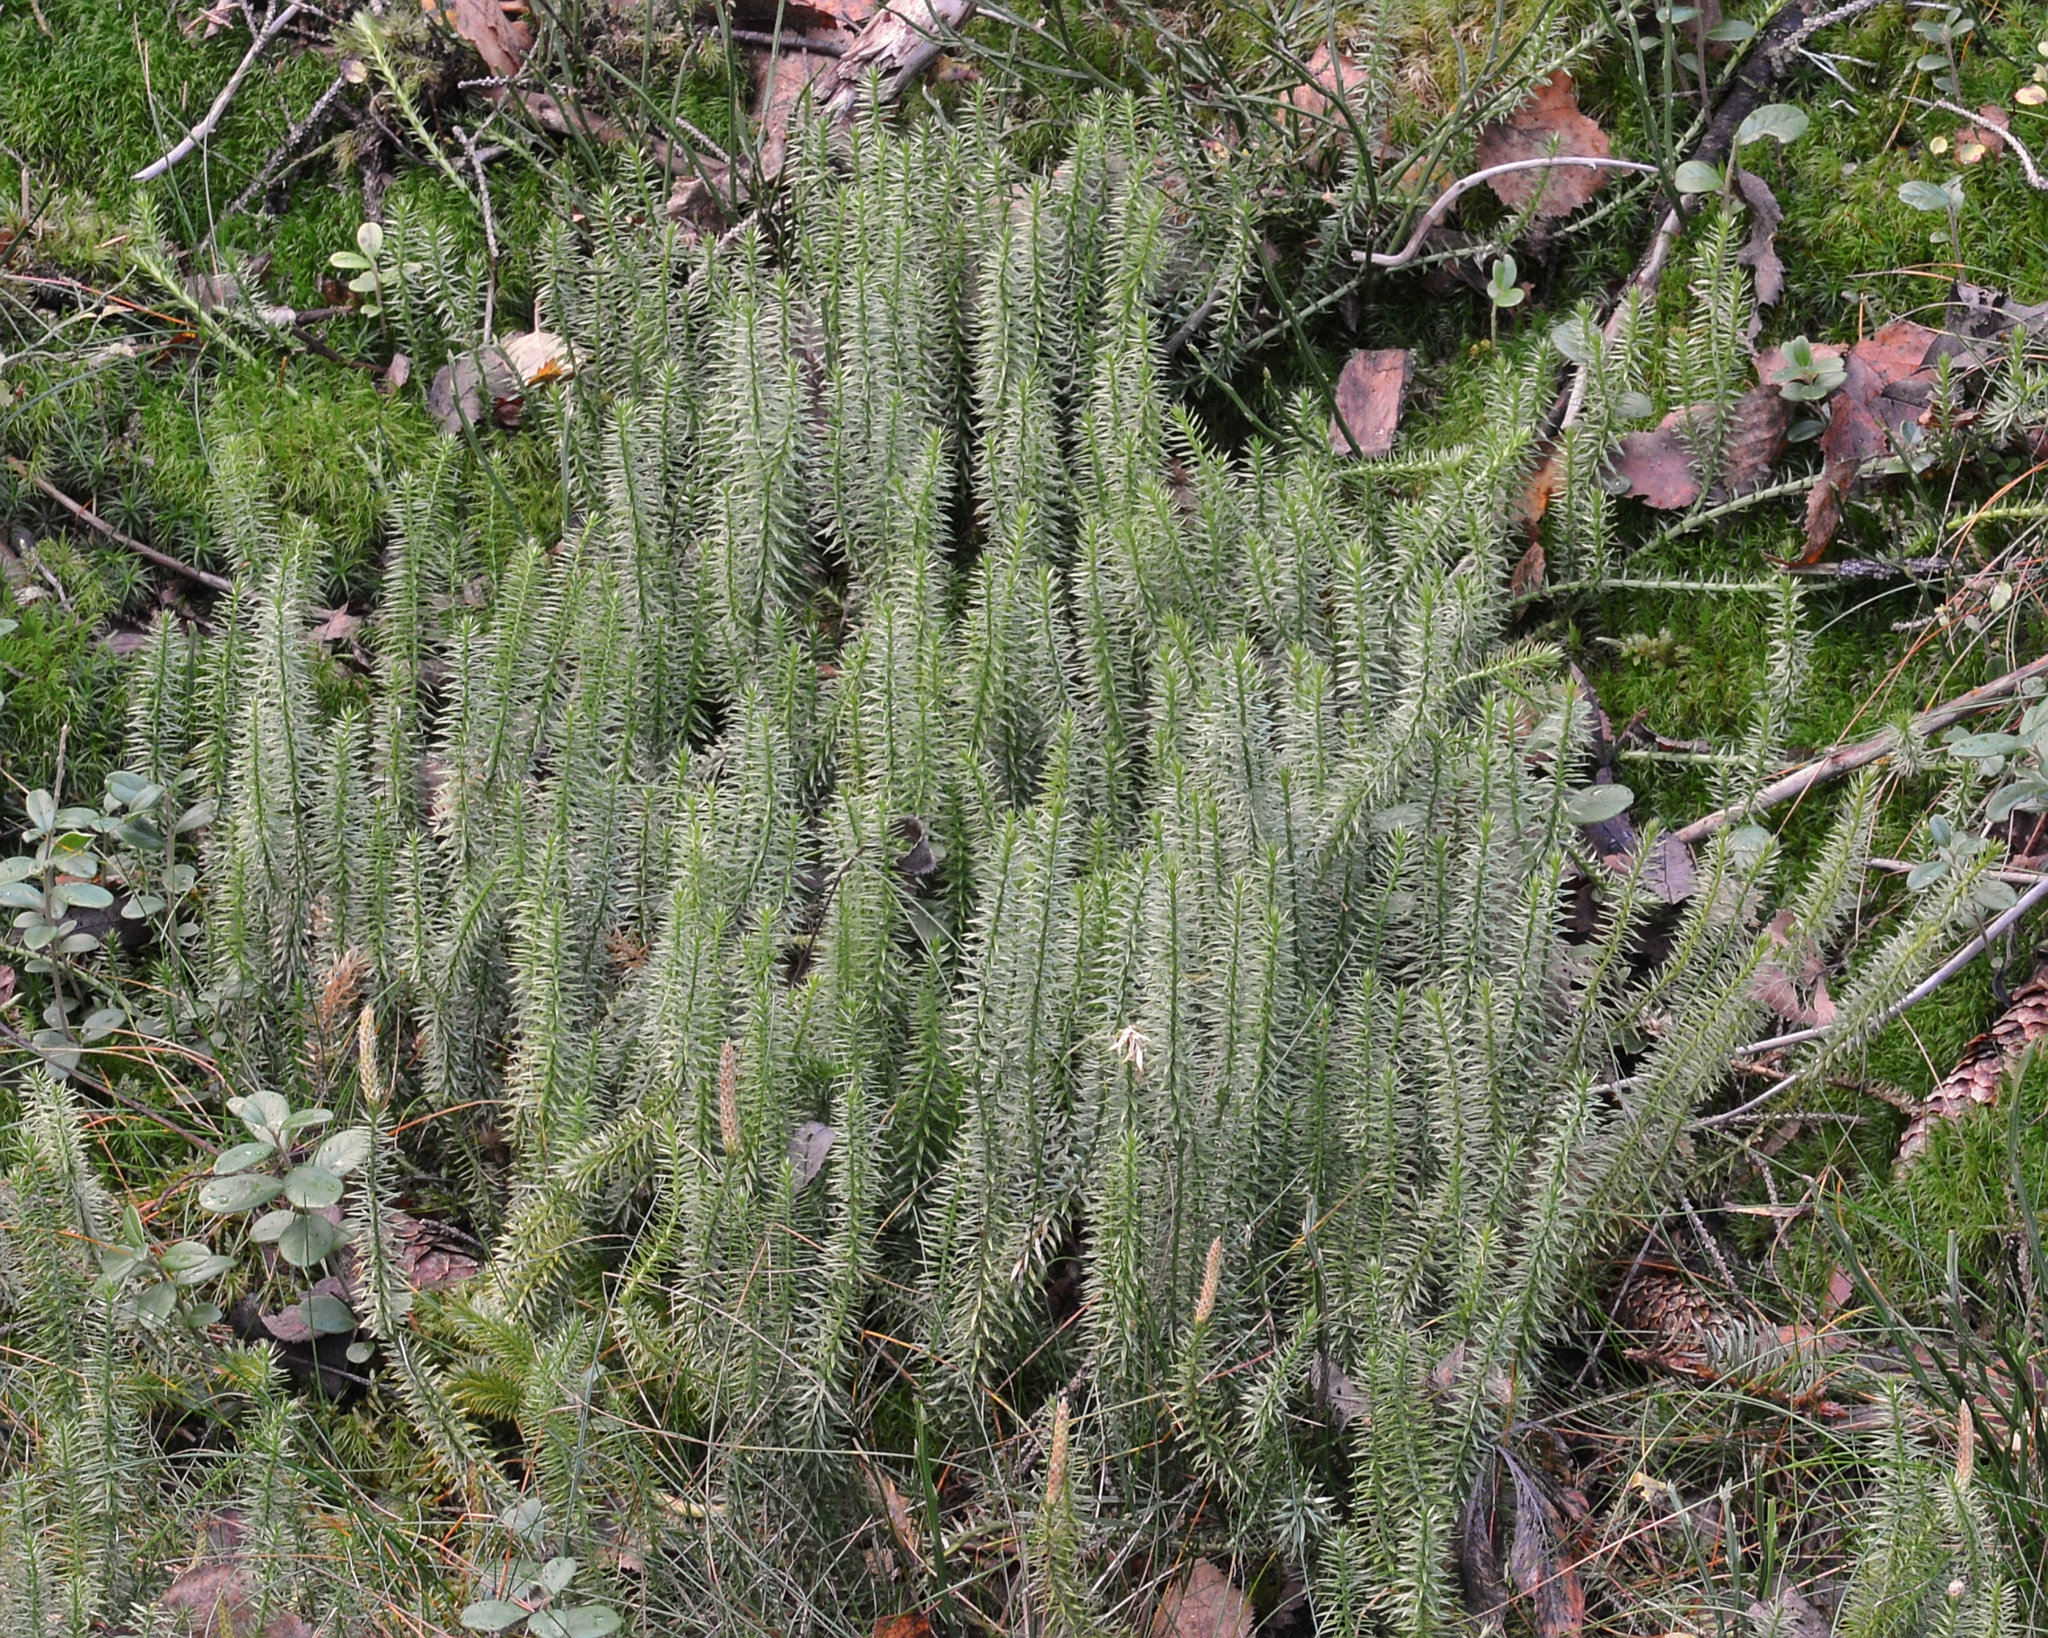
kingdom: Plantae
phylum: Tracheophyta
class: Lycopodiopsida
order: Lycopodiales
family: Lycopodiaceae
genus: Spinulum
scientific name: Spinulum annotinum
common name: Interrupted club-moss
